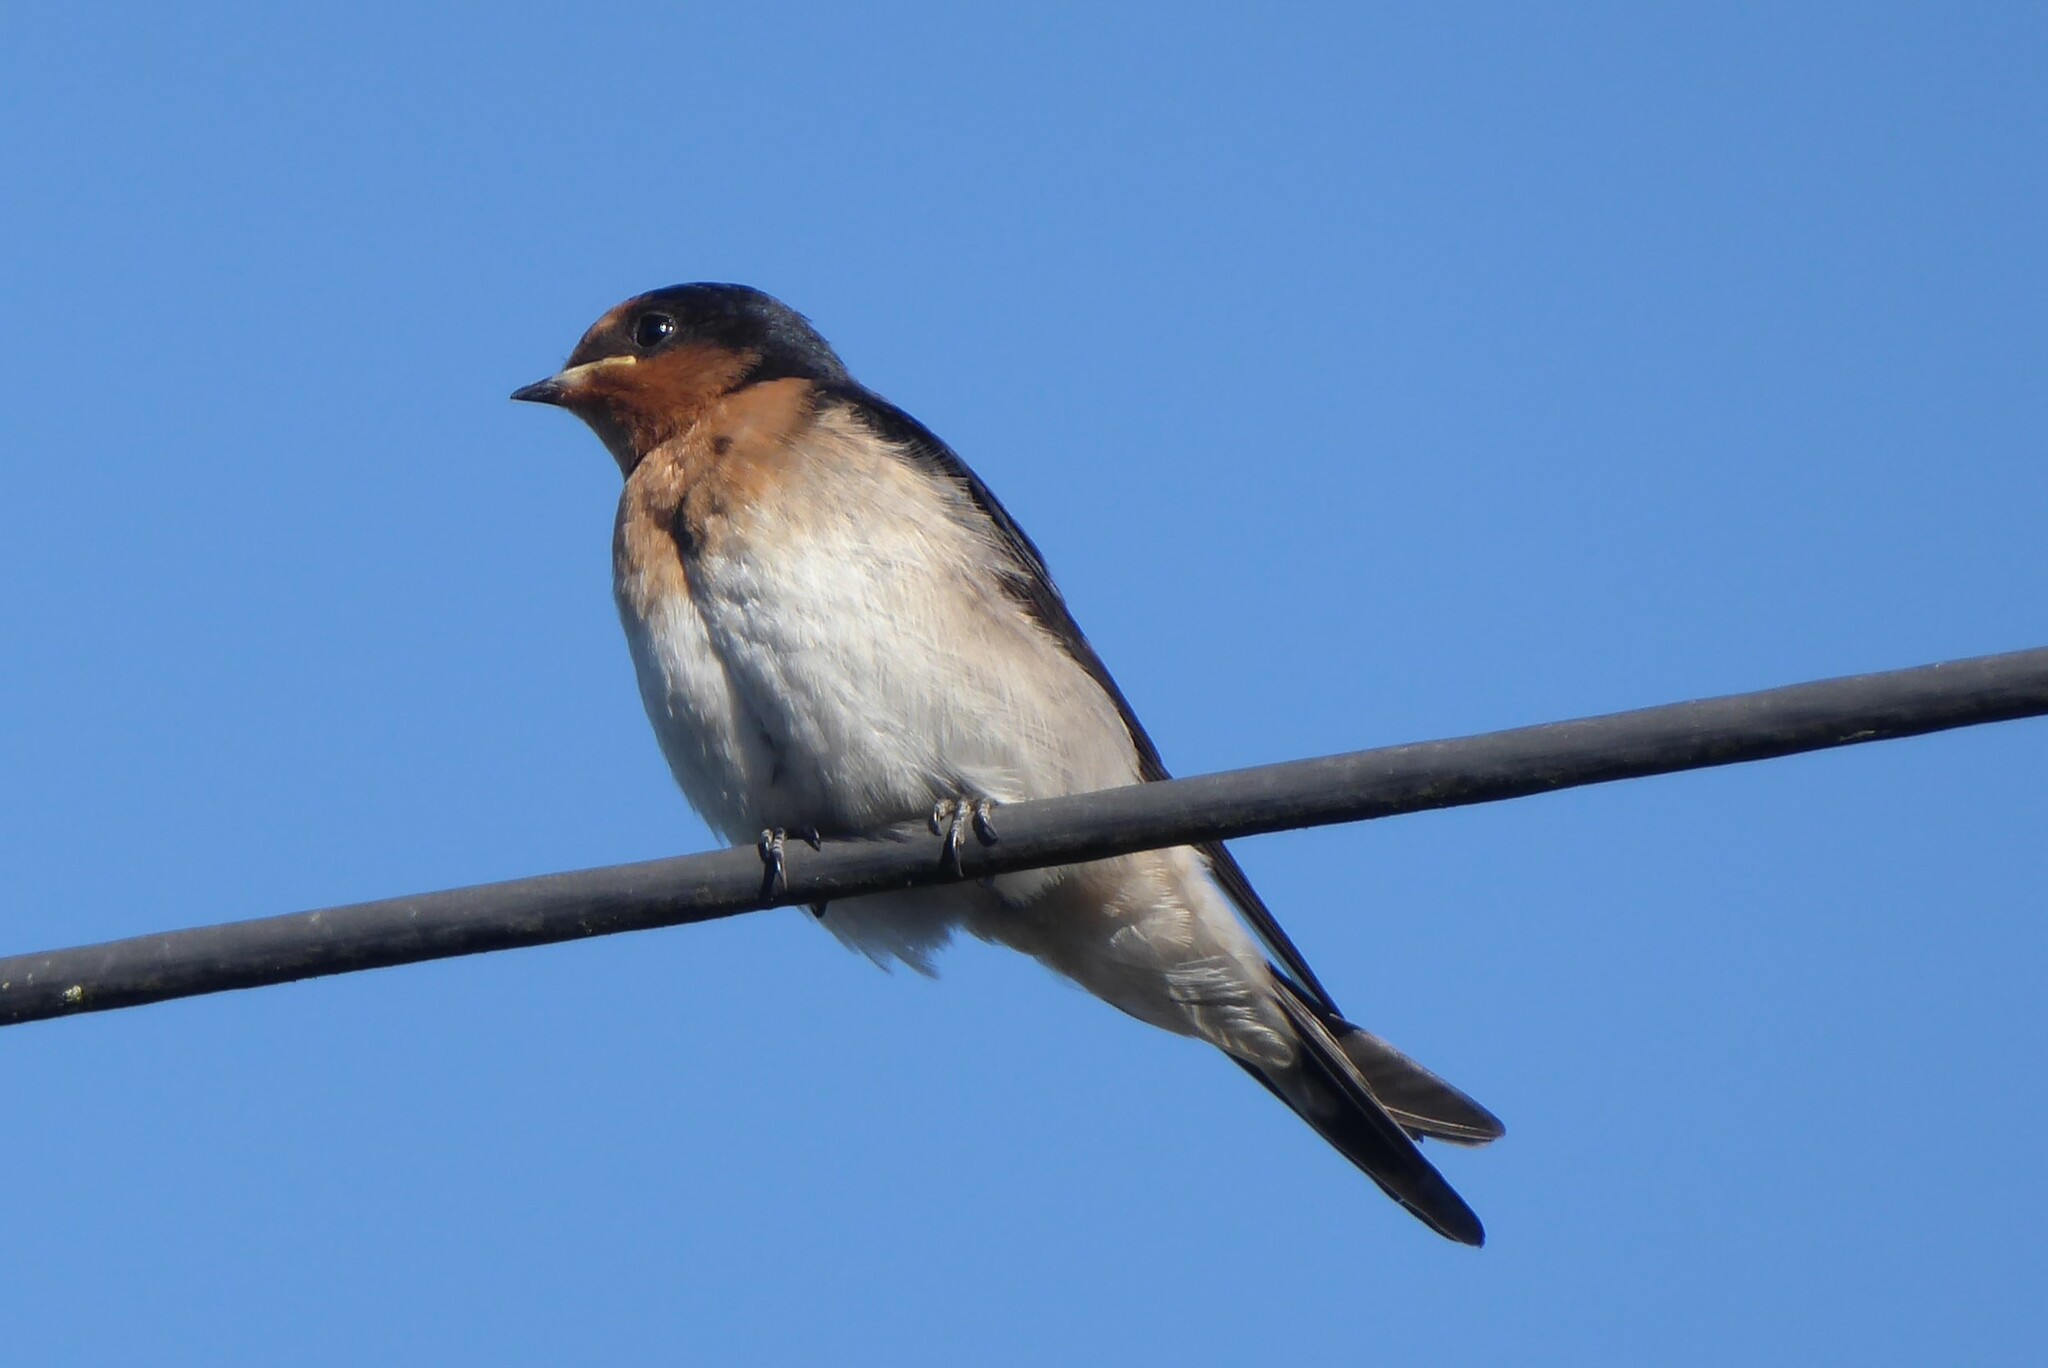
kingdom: Animalia
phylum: Chordata
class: Aves
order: Passeriformes
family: Hirundinidae
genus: Hirundo
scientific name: Hirundo neoxena
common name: Welcome swallow
